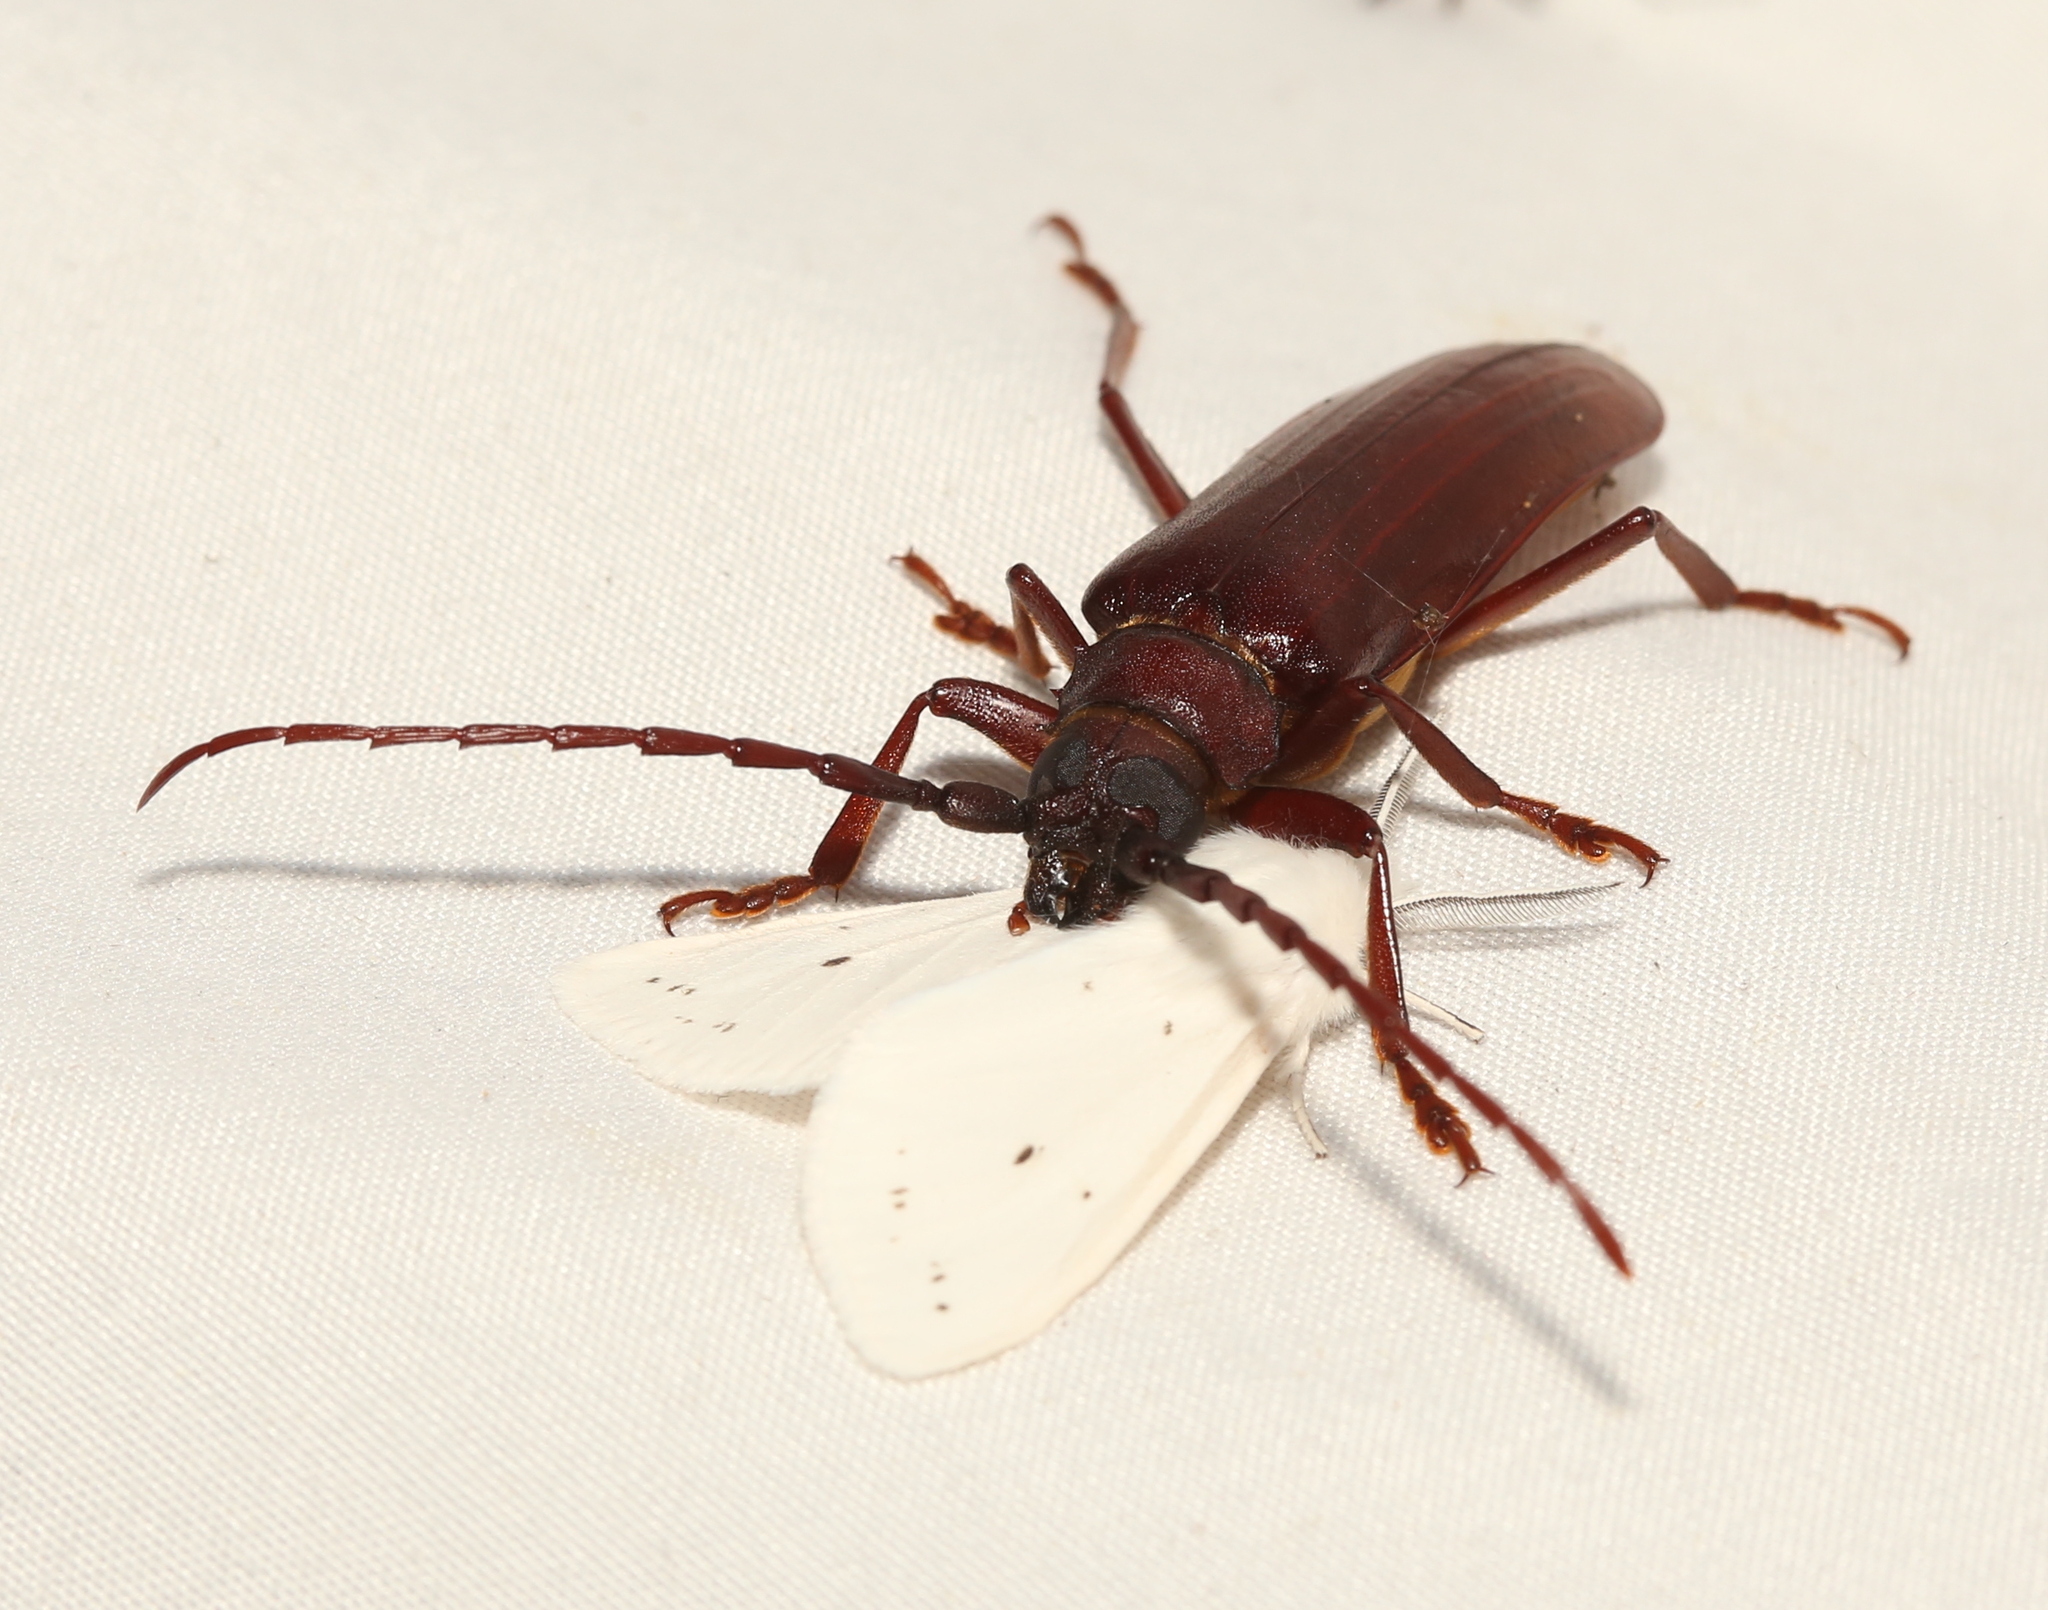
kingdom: Animalia
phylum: Arthropoda
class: Insecta
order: Coleoptera
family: Cerambycidae
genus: Orthosoma
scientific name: Orthosoma brunneum
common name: Brown prionid beetle
